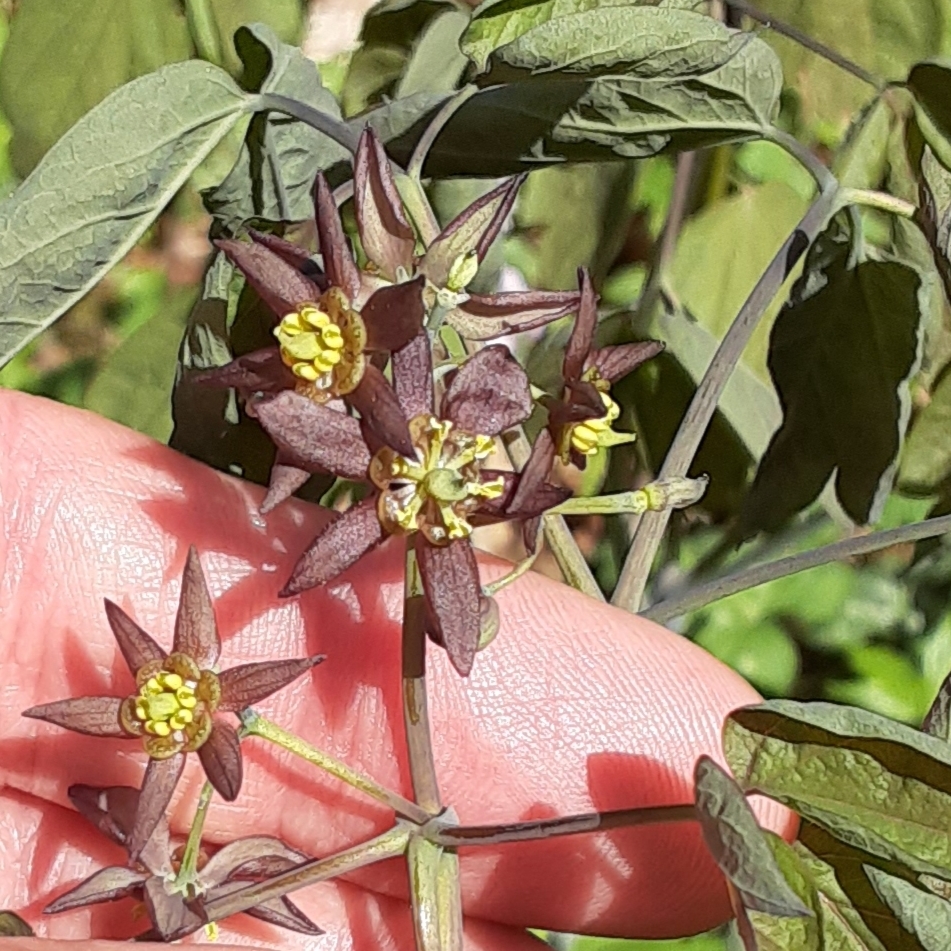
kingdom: Plantae
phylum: Tracheophyta
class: Magnoliopsida
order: Ranunculales
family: Berberidaceae
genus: Caulophyllum
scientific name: Caulophyllum giganteum
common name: Blue cohosh
